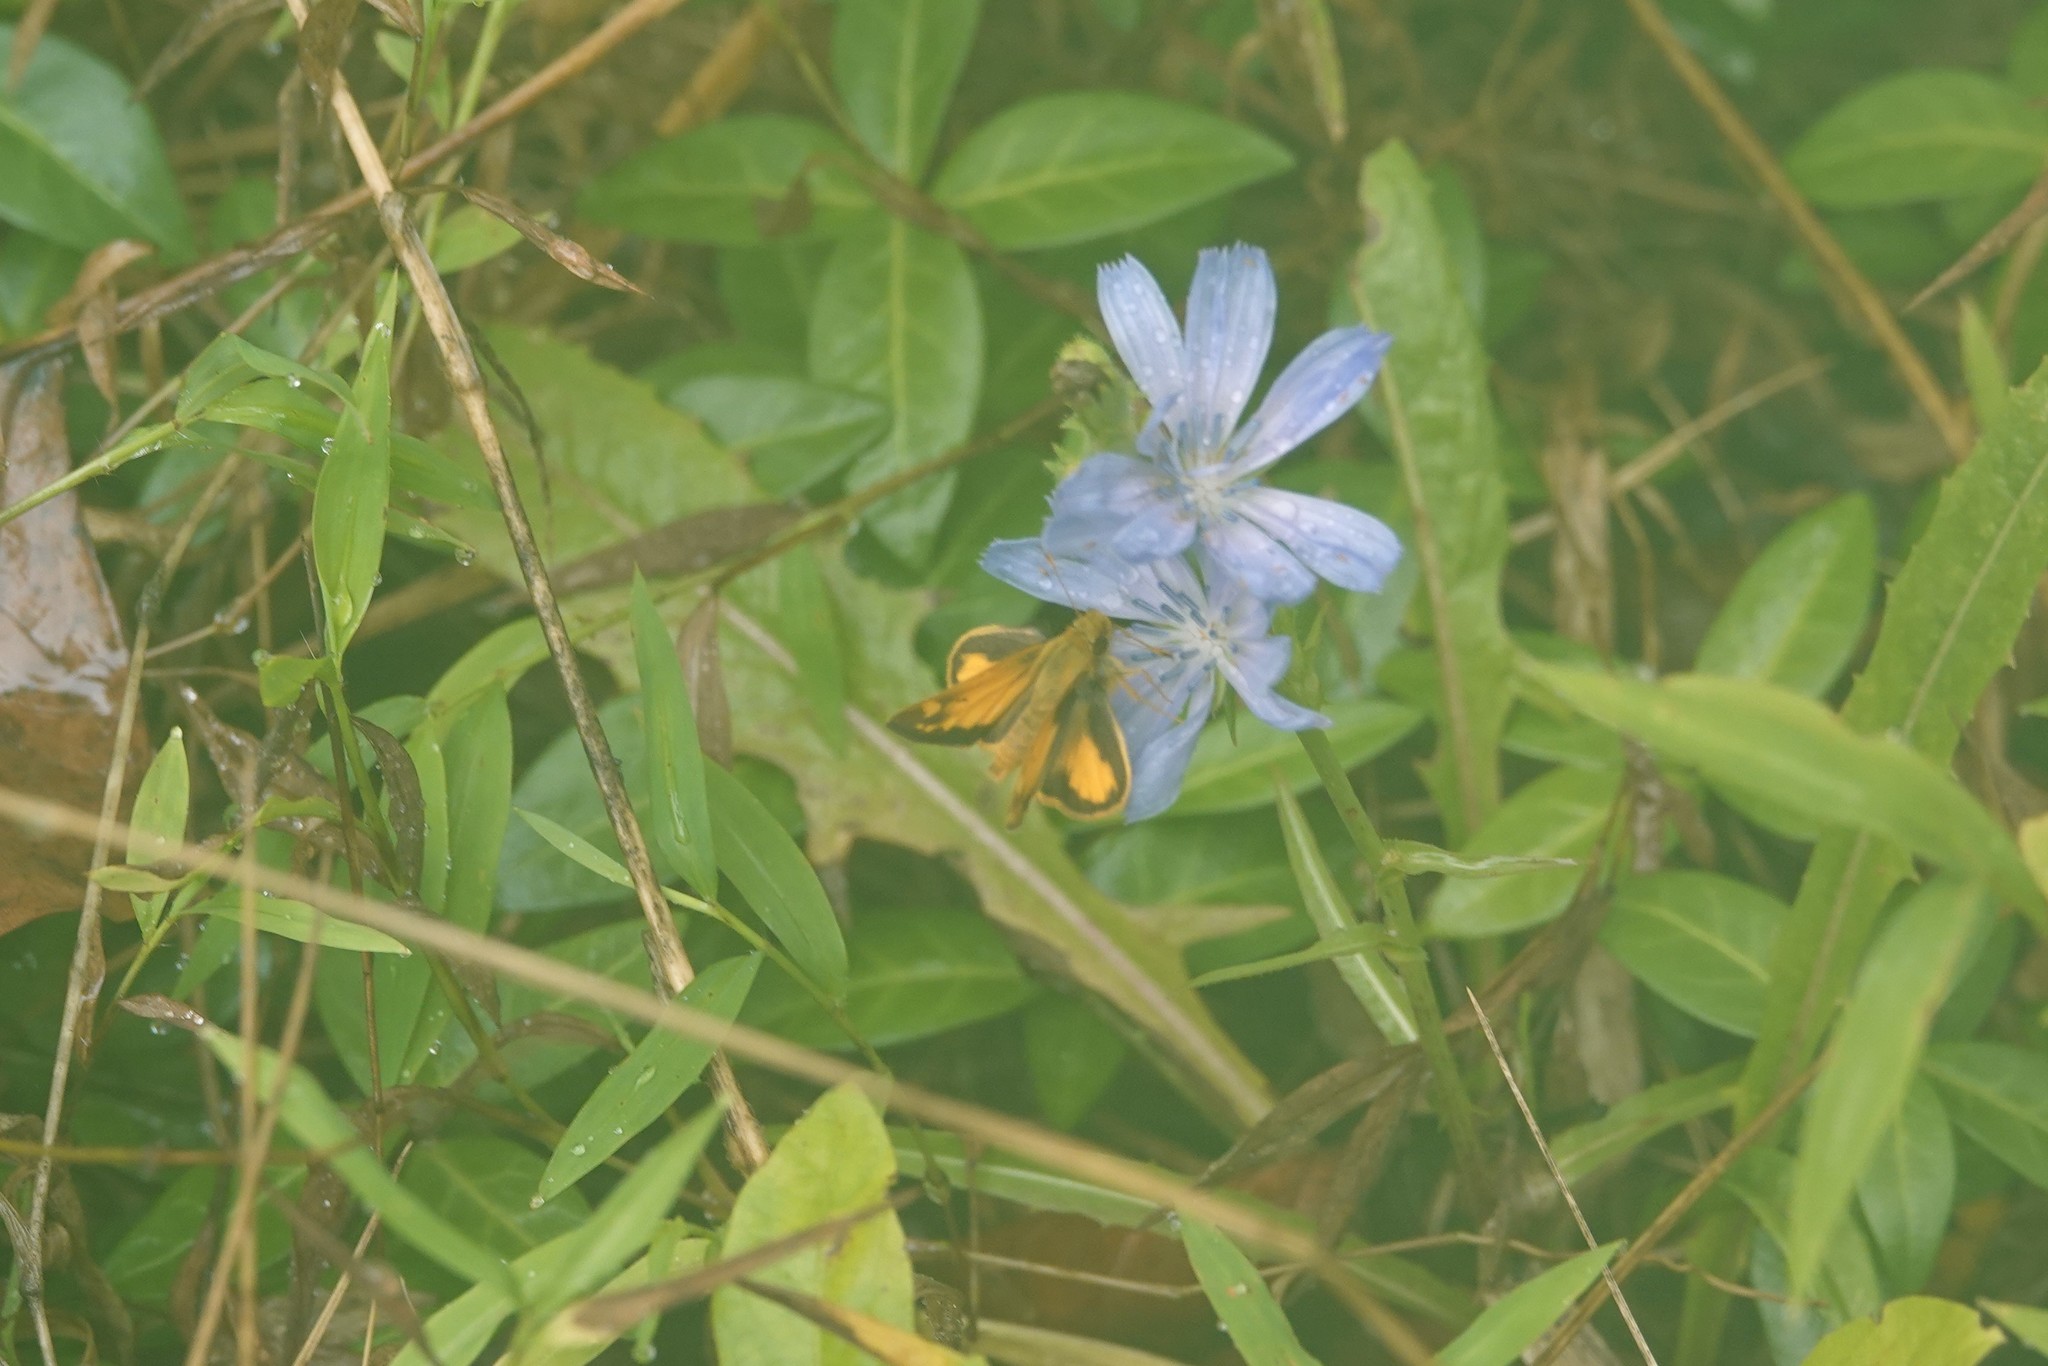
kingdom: Animalia
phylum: Arthropoda
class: Insecta
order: Lepidoptera
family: Hesperiidae
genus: Lon
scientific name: Lon zabulon
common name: Zabulon skipper
